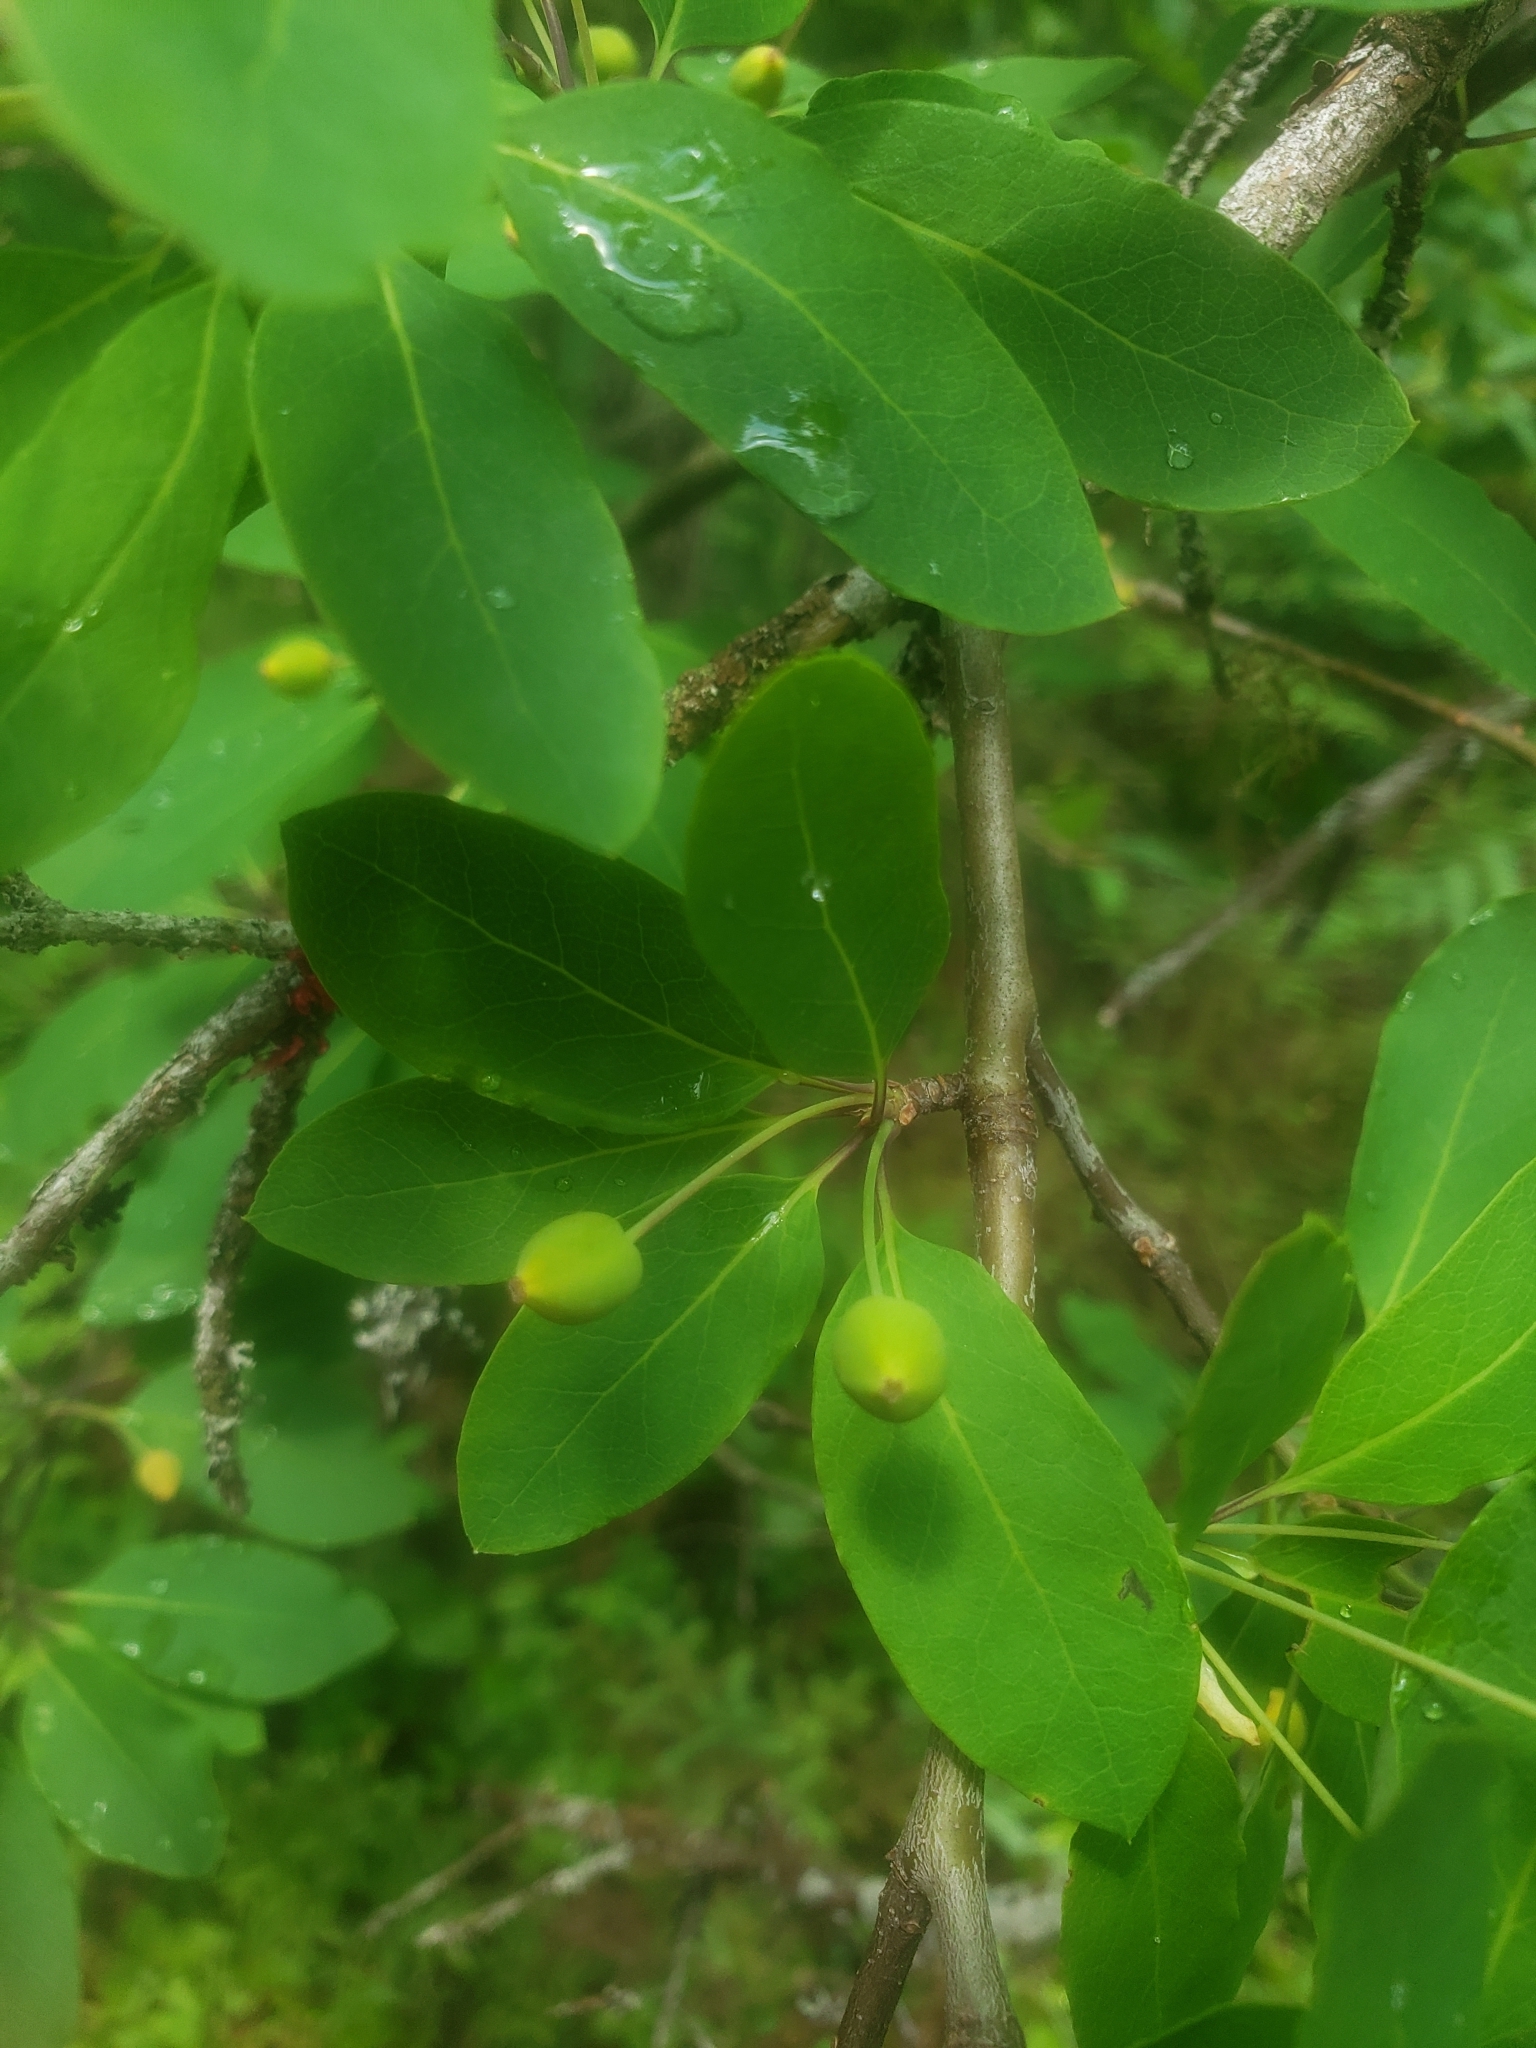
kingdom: Plantae
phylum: Tracheophyta
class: Magnoliopsida
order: Aquifoliales
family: Aquifoliaceae
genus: Ilex
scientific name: Ilex mucronata
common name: Catberry
